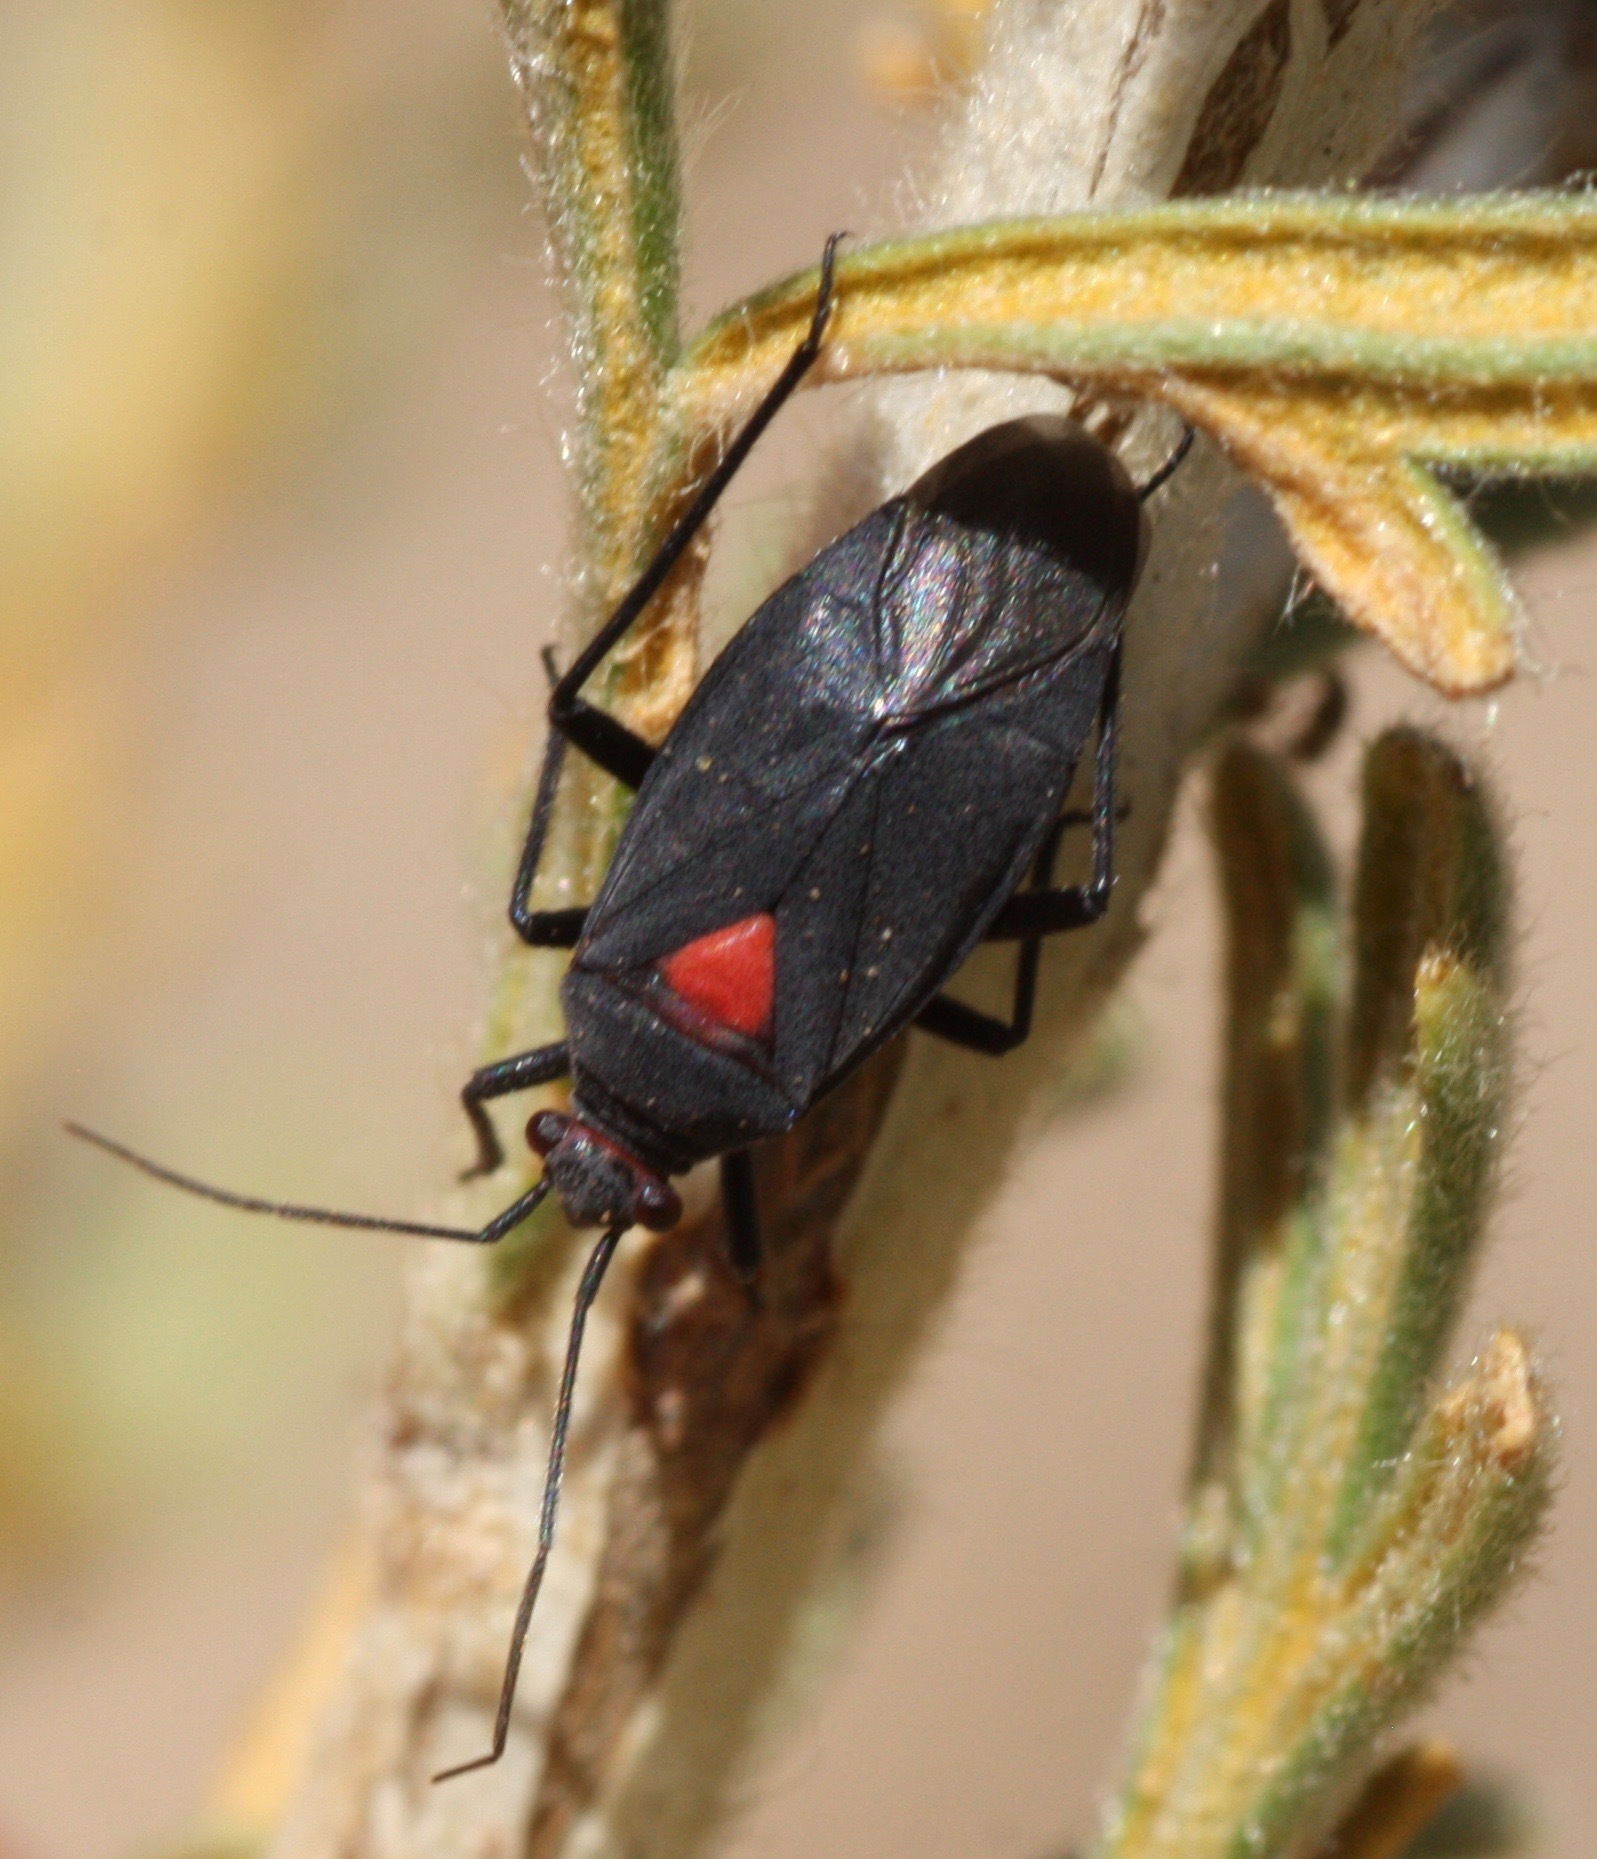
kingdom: Animalia
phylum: Arthropoda
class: Insecta
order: Hemiptera
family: Miridae
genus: Prepops
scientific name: Prepops rubroscutellatus
